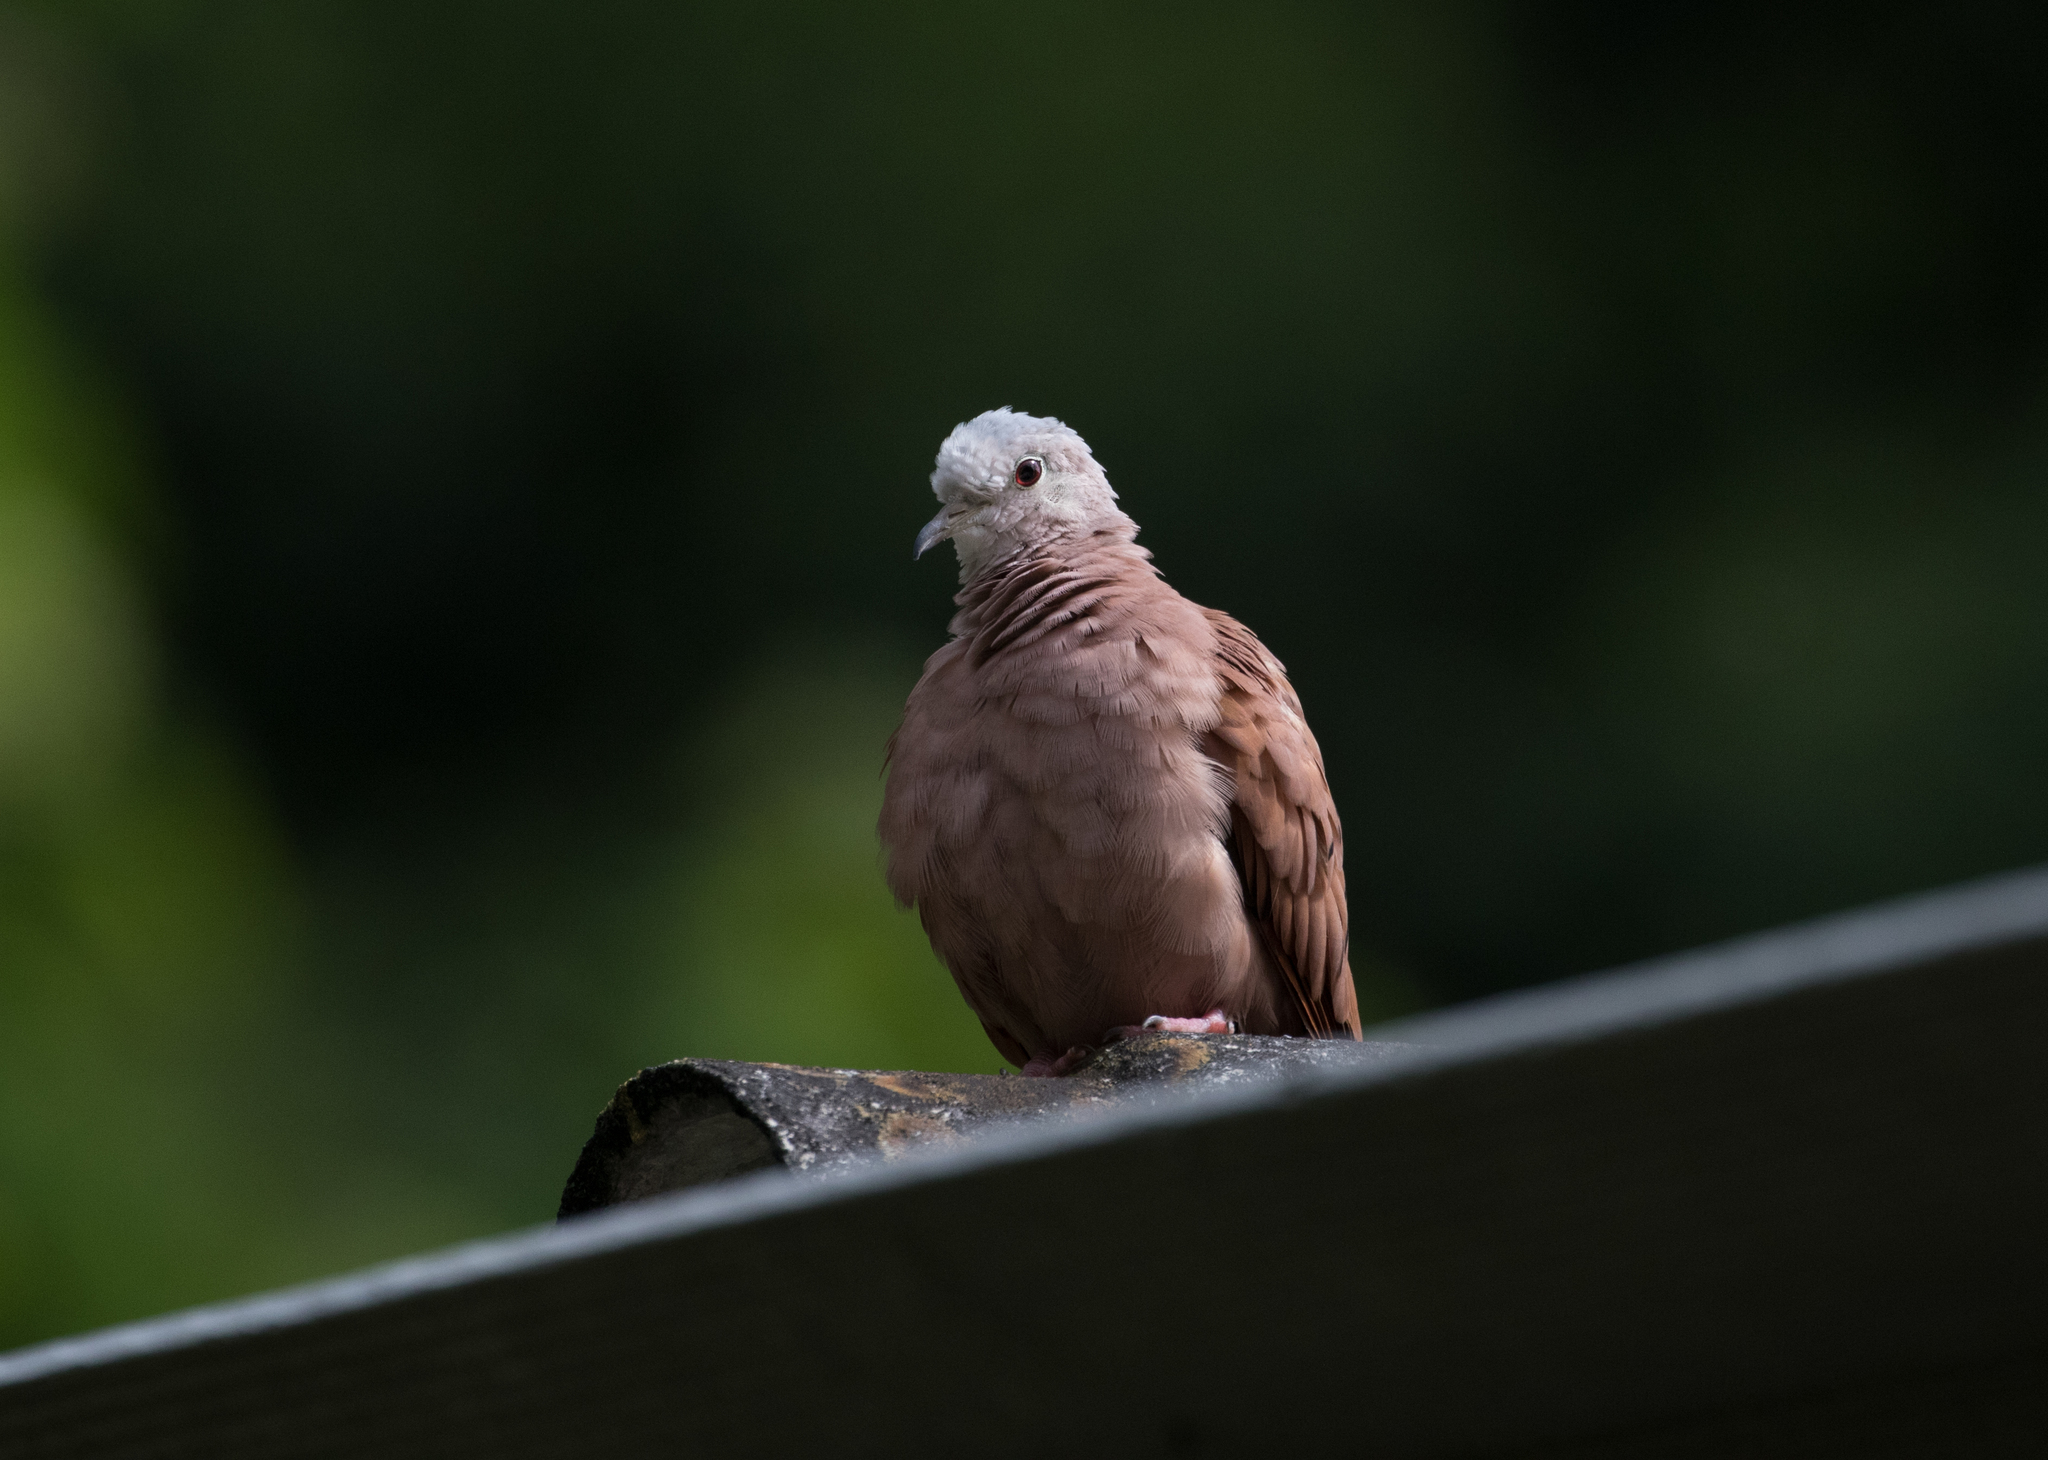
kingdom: Animalia
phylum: Chordata
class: Aves
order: Columbiformes
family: Columbidae
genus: Columbina
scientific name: Columbina talpacoti
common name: Ruddy ground dove
